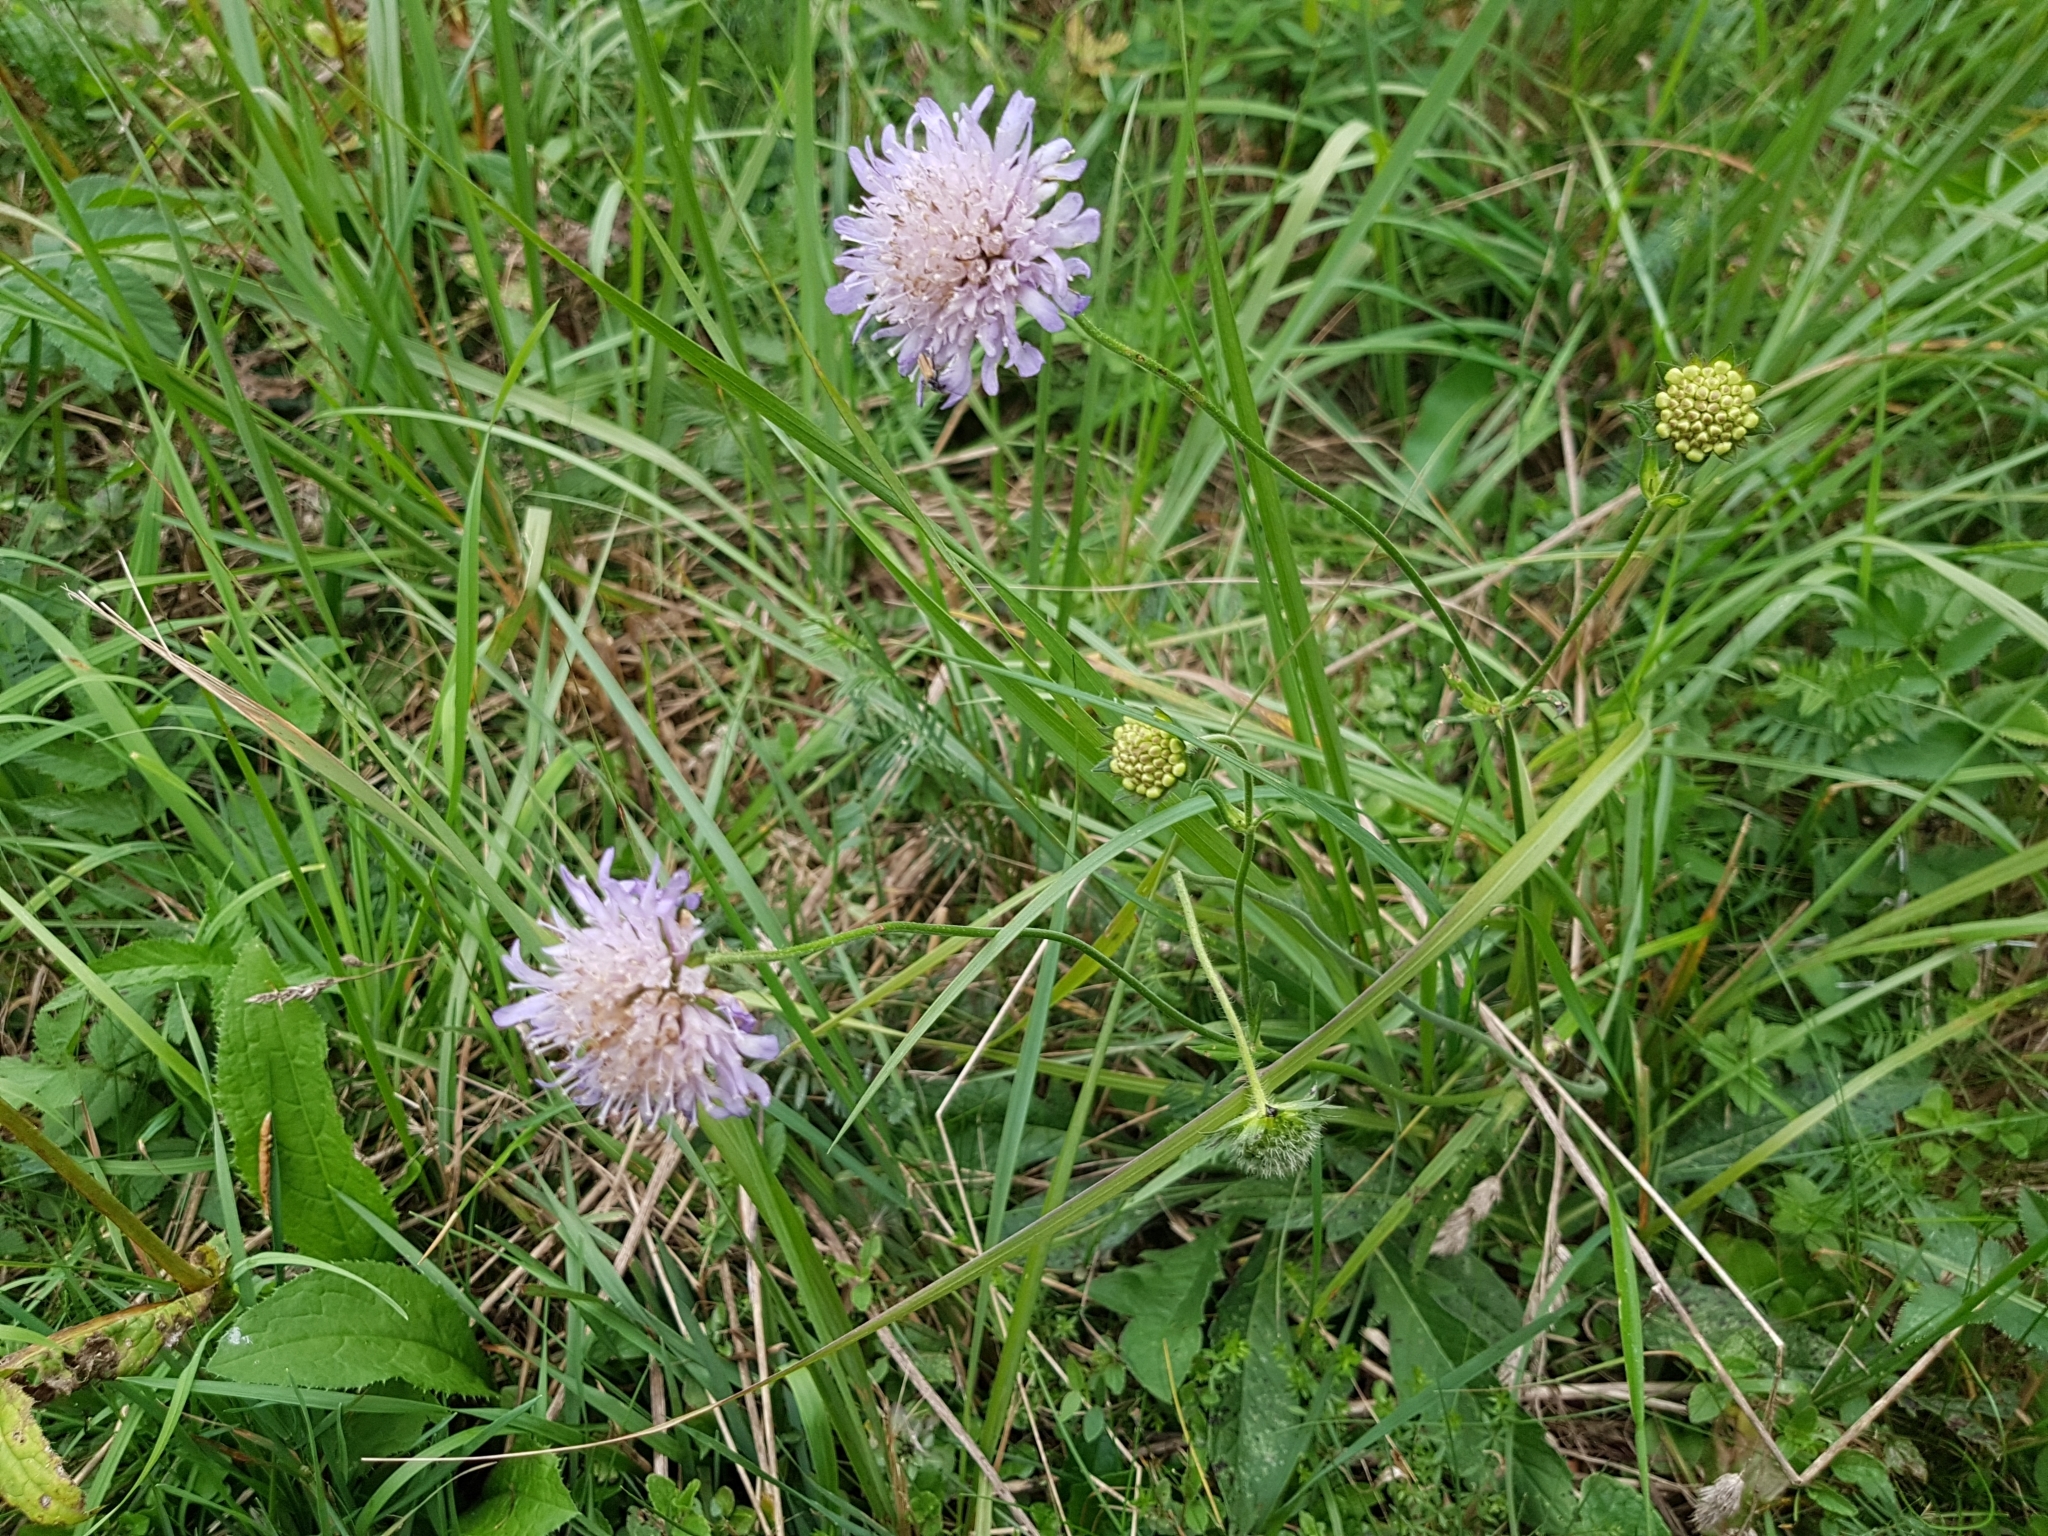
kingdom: Plantae
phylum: Tracheophyta
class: Magnoliopsida
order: Dipsacales
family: Caprifoliaceae
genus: Knautia
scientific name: Knautia arvensis
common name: Field scabiosa
